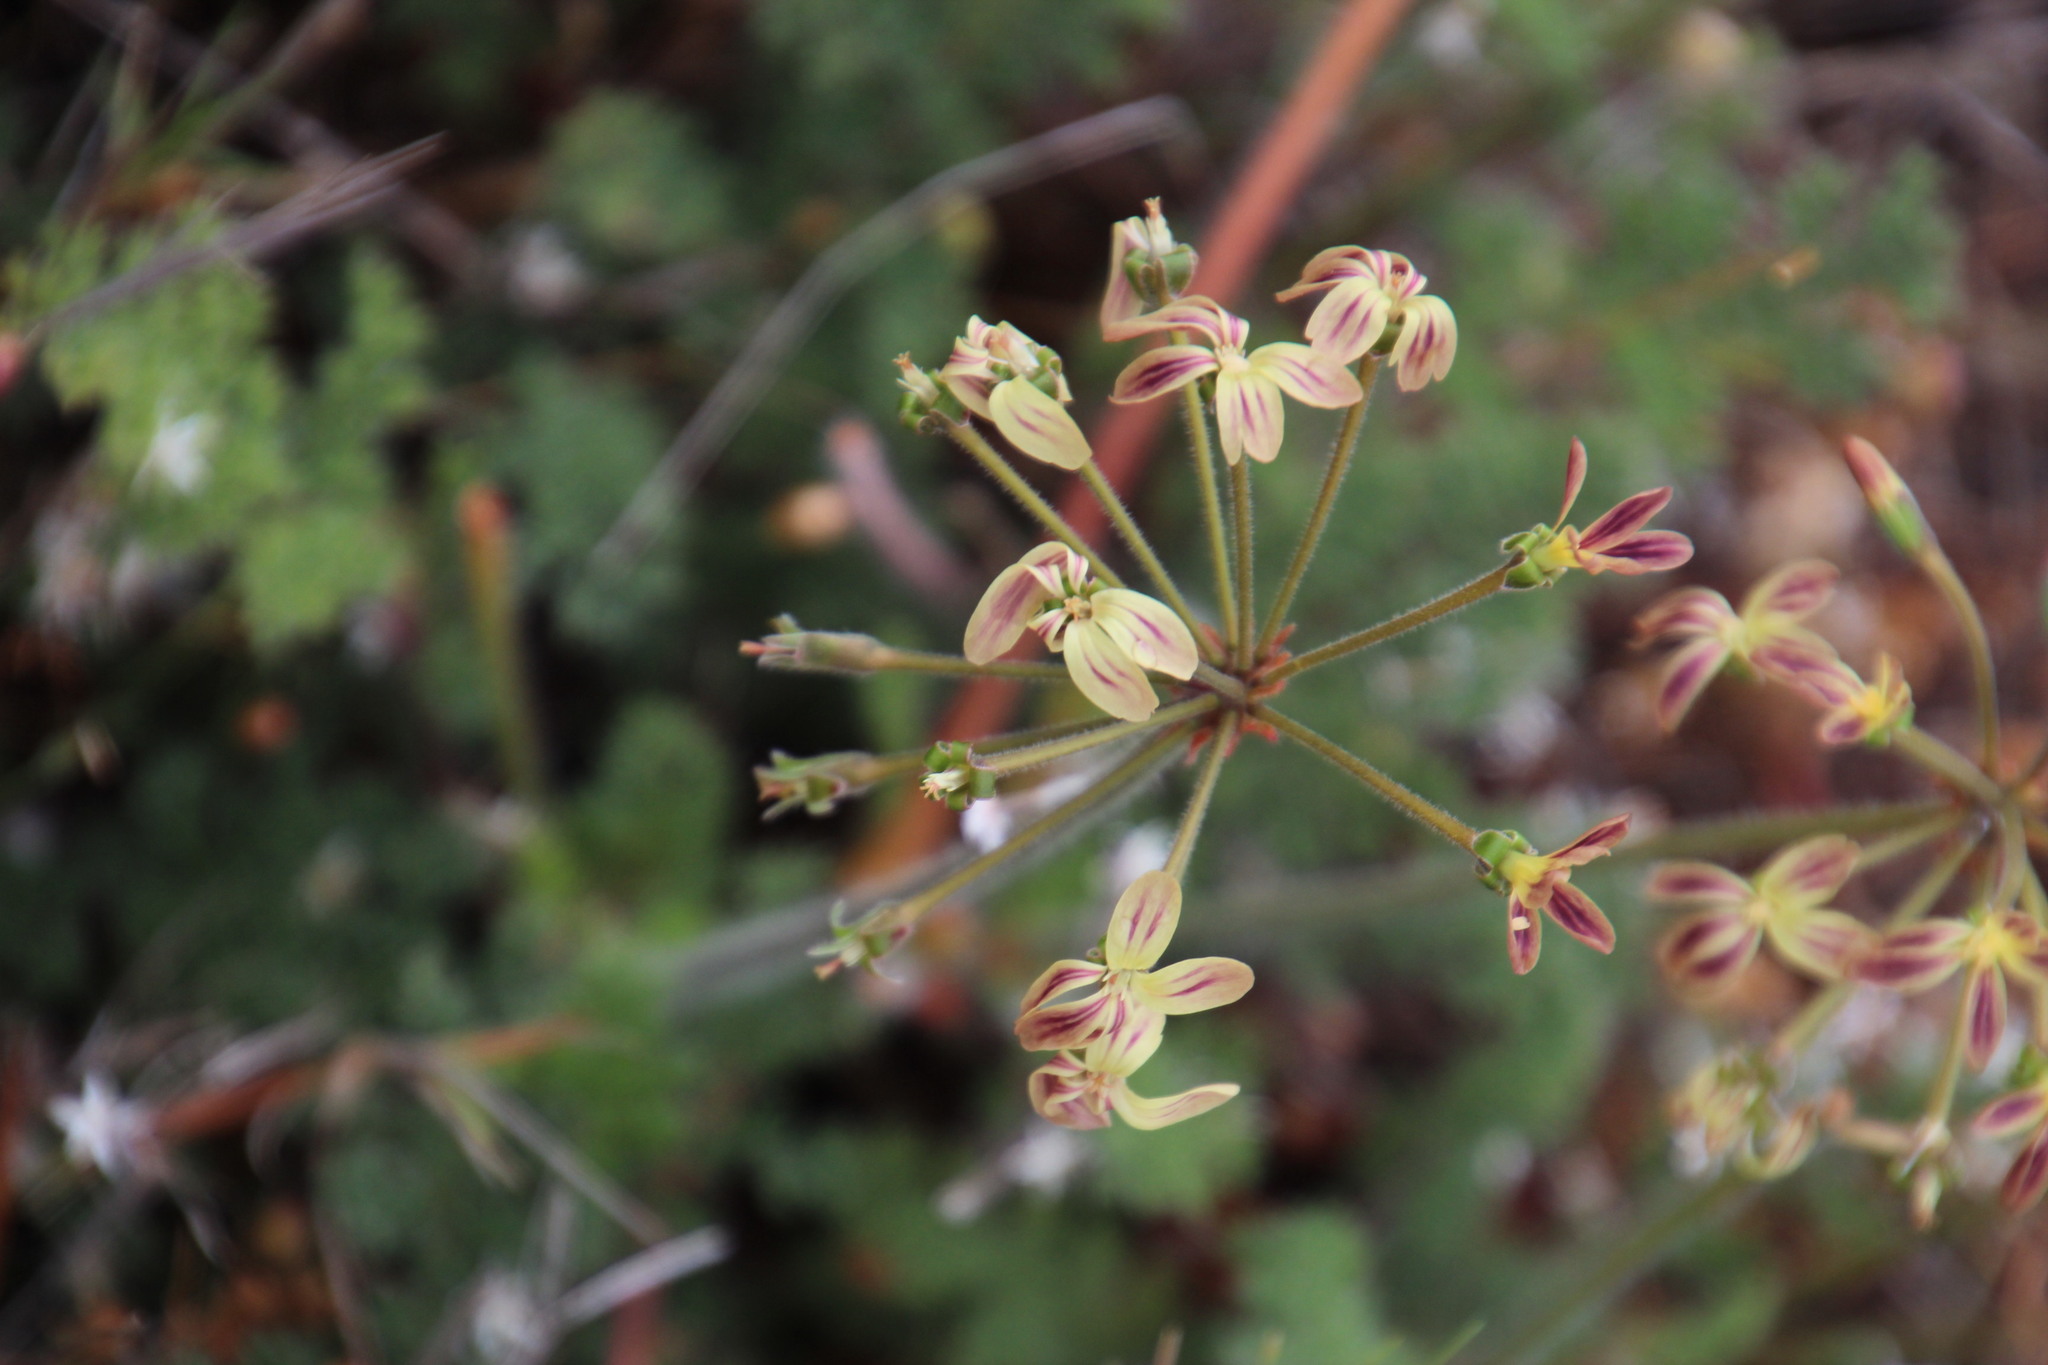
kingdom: Plantae
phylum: Tracheophyta
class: Magnoliopsida
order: Geraniales
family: Geraniaceae
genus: Pelargonium
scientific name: Pelargonium triste
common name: Night-scent pelargonium
